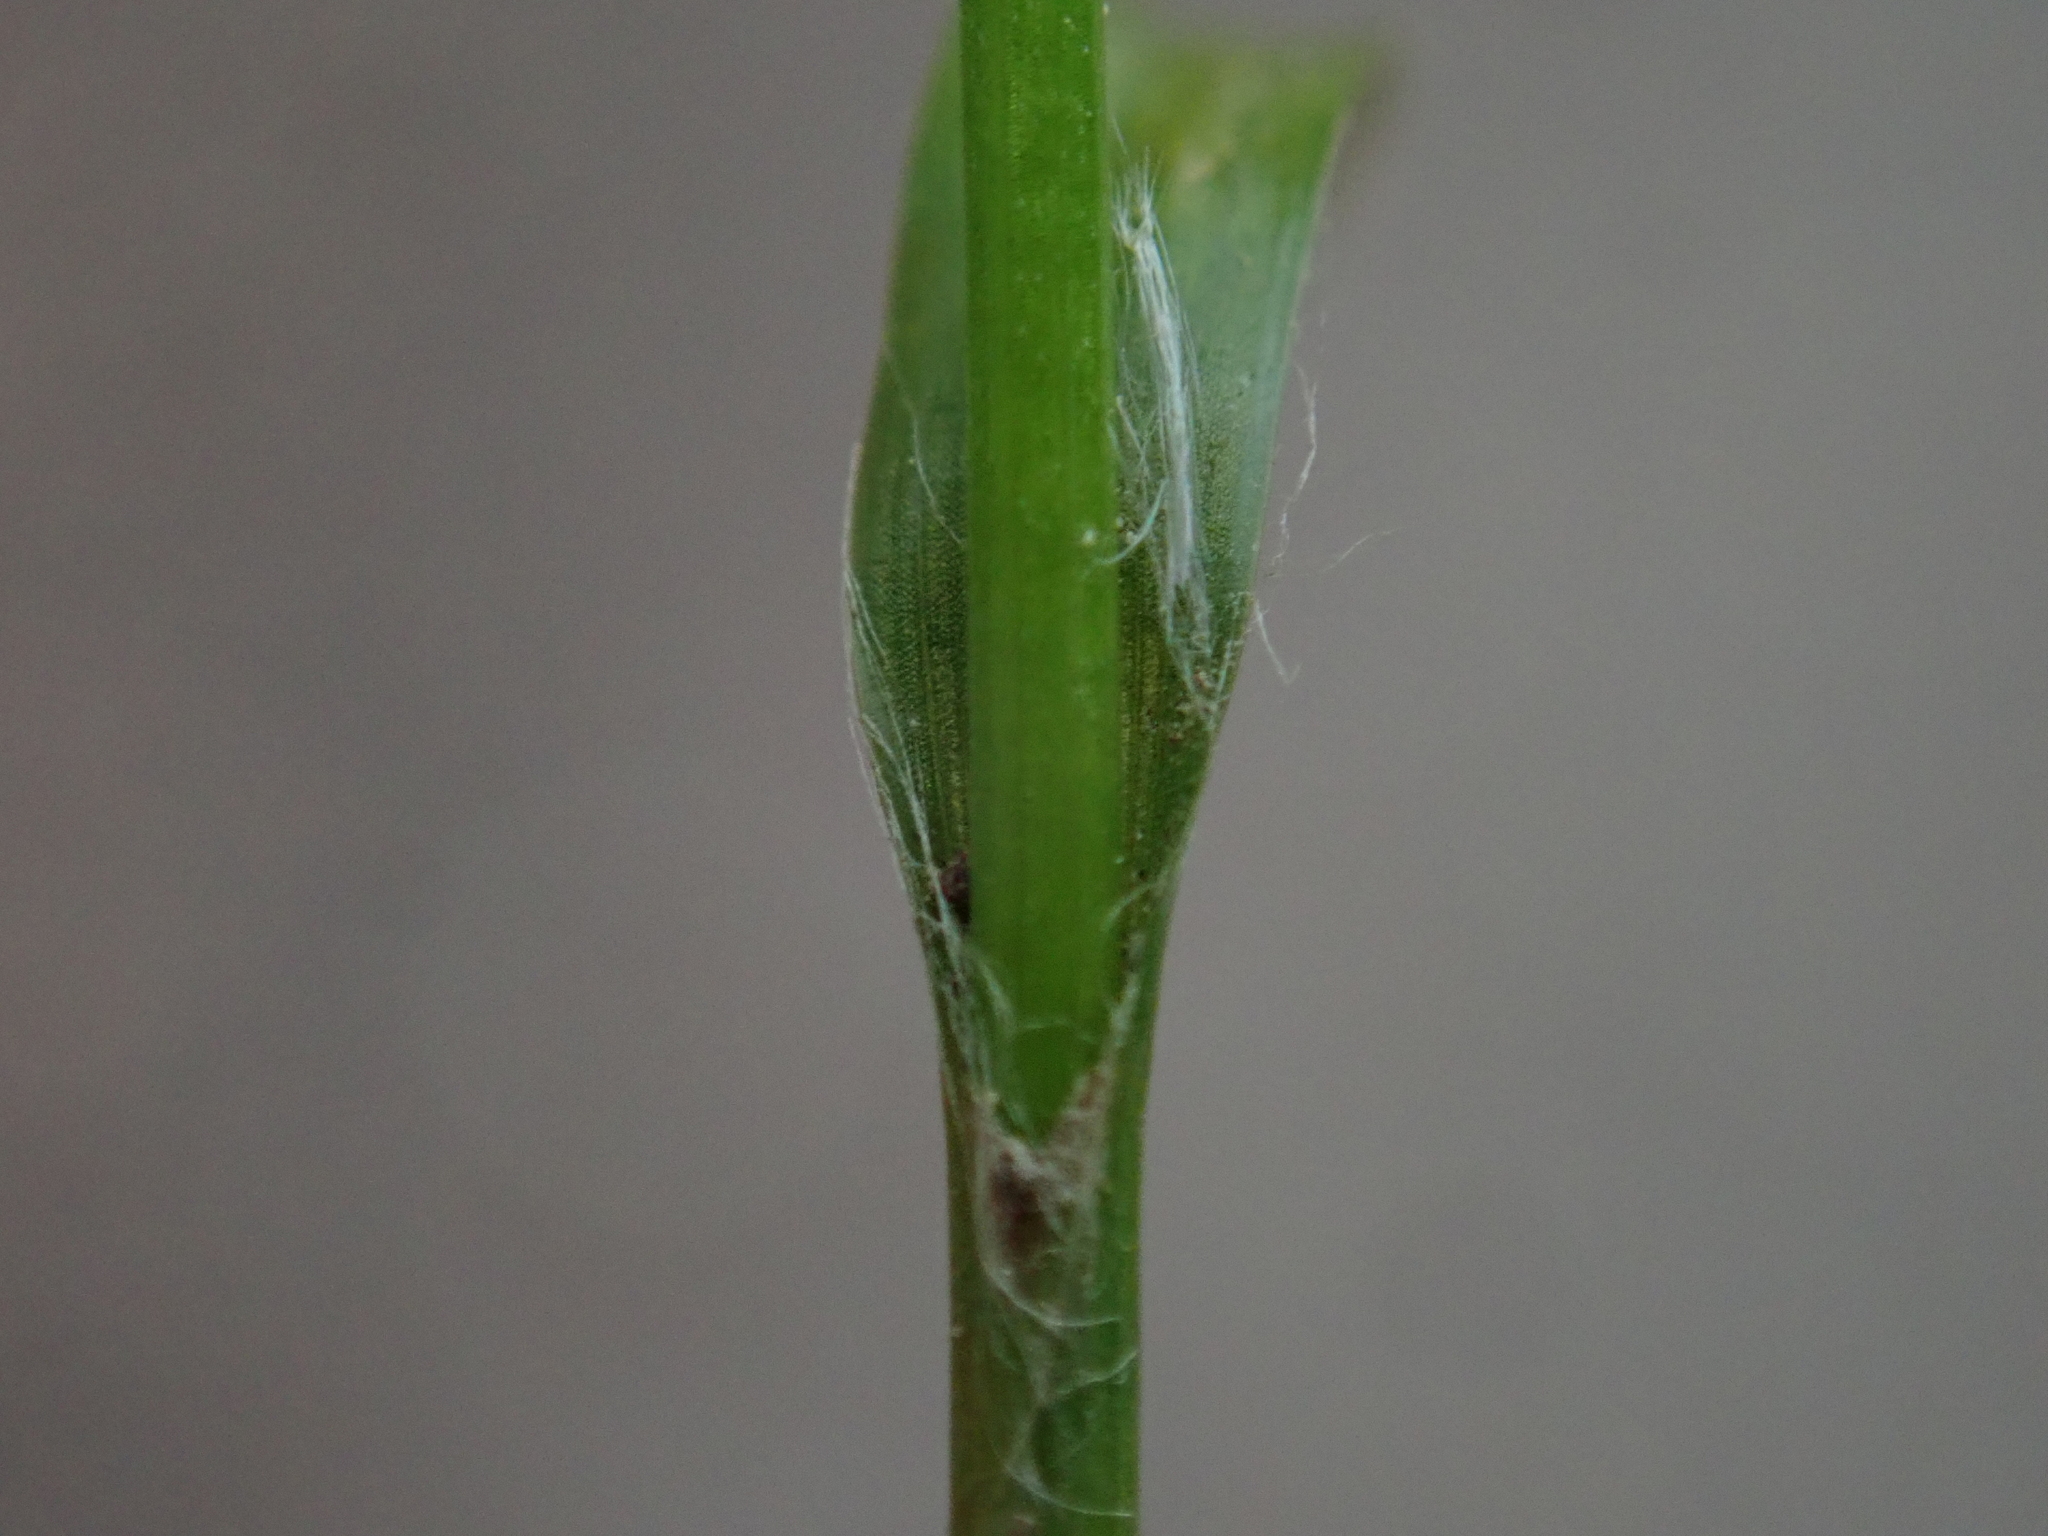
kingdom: Plantae
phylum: Tracheophyta
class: Liliopsida
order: Poales
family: Juncaceae
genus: Luzula
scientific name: Luzula pilosa
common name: Hairy wood-rush
